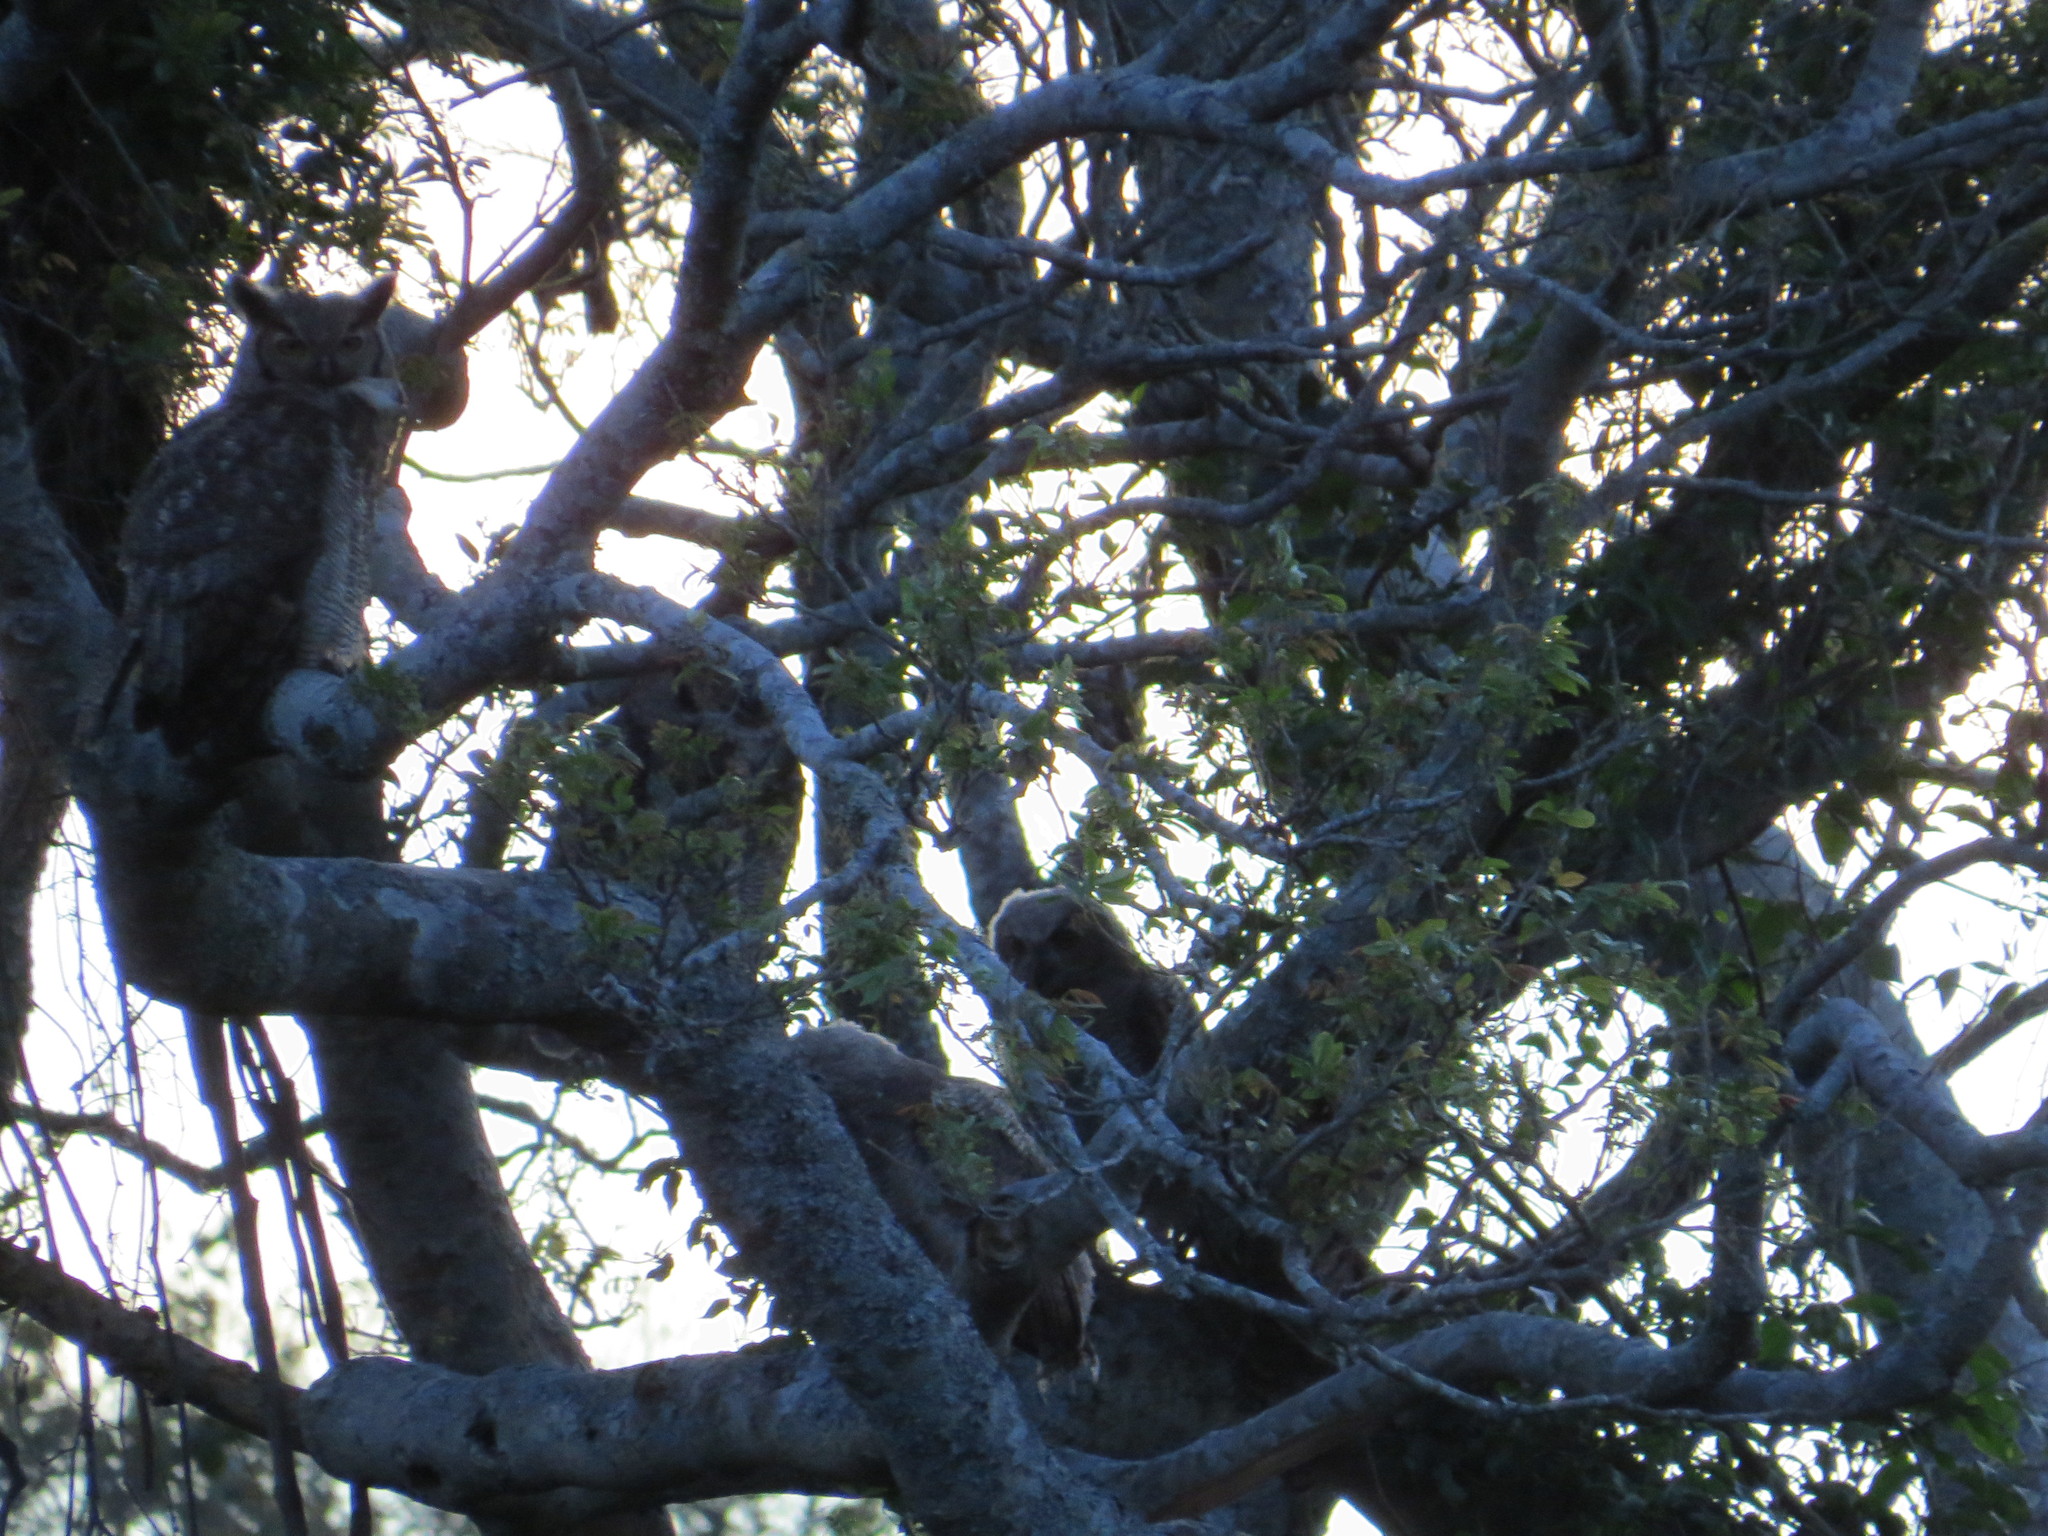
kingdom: Animalia
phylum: Chordata
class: Aves
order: Strigiformes
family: Strigidae
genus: Bubo
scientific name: Bubo virginianus
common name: Great horned owl
